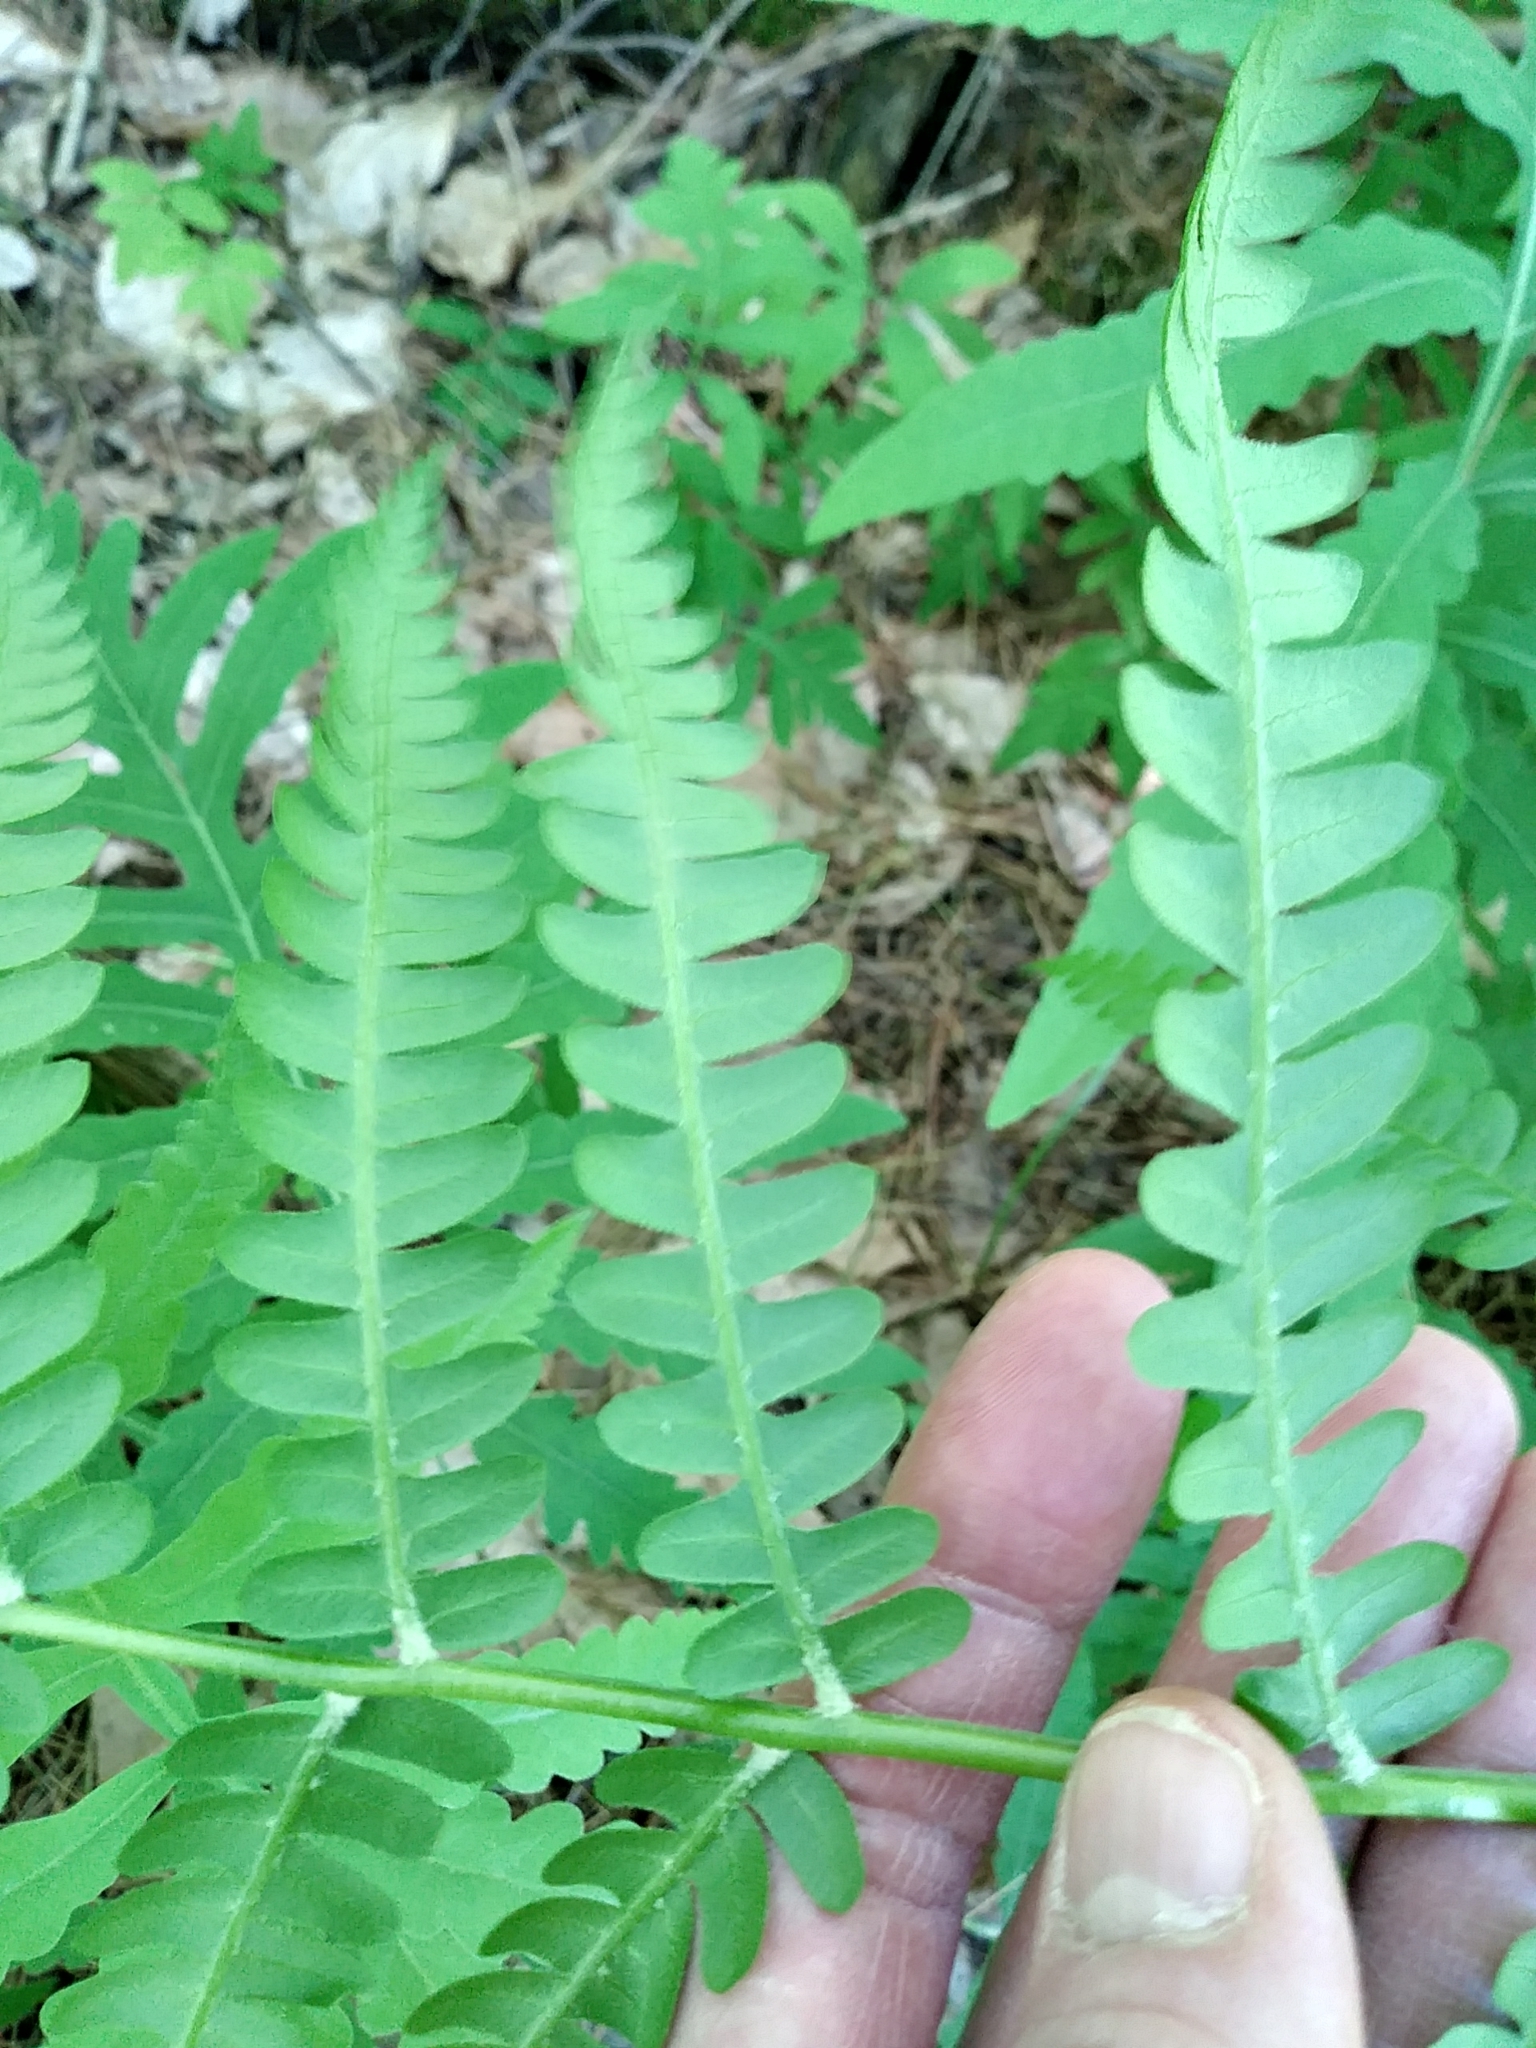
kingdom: Plantae
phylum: Tracheophyta
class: Polypodiopsida
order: Osmundales
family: Osmundaceae
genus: Osmundastrum
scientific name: Osmundastrum cinnamomeum
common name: Cinnamon fern
